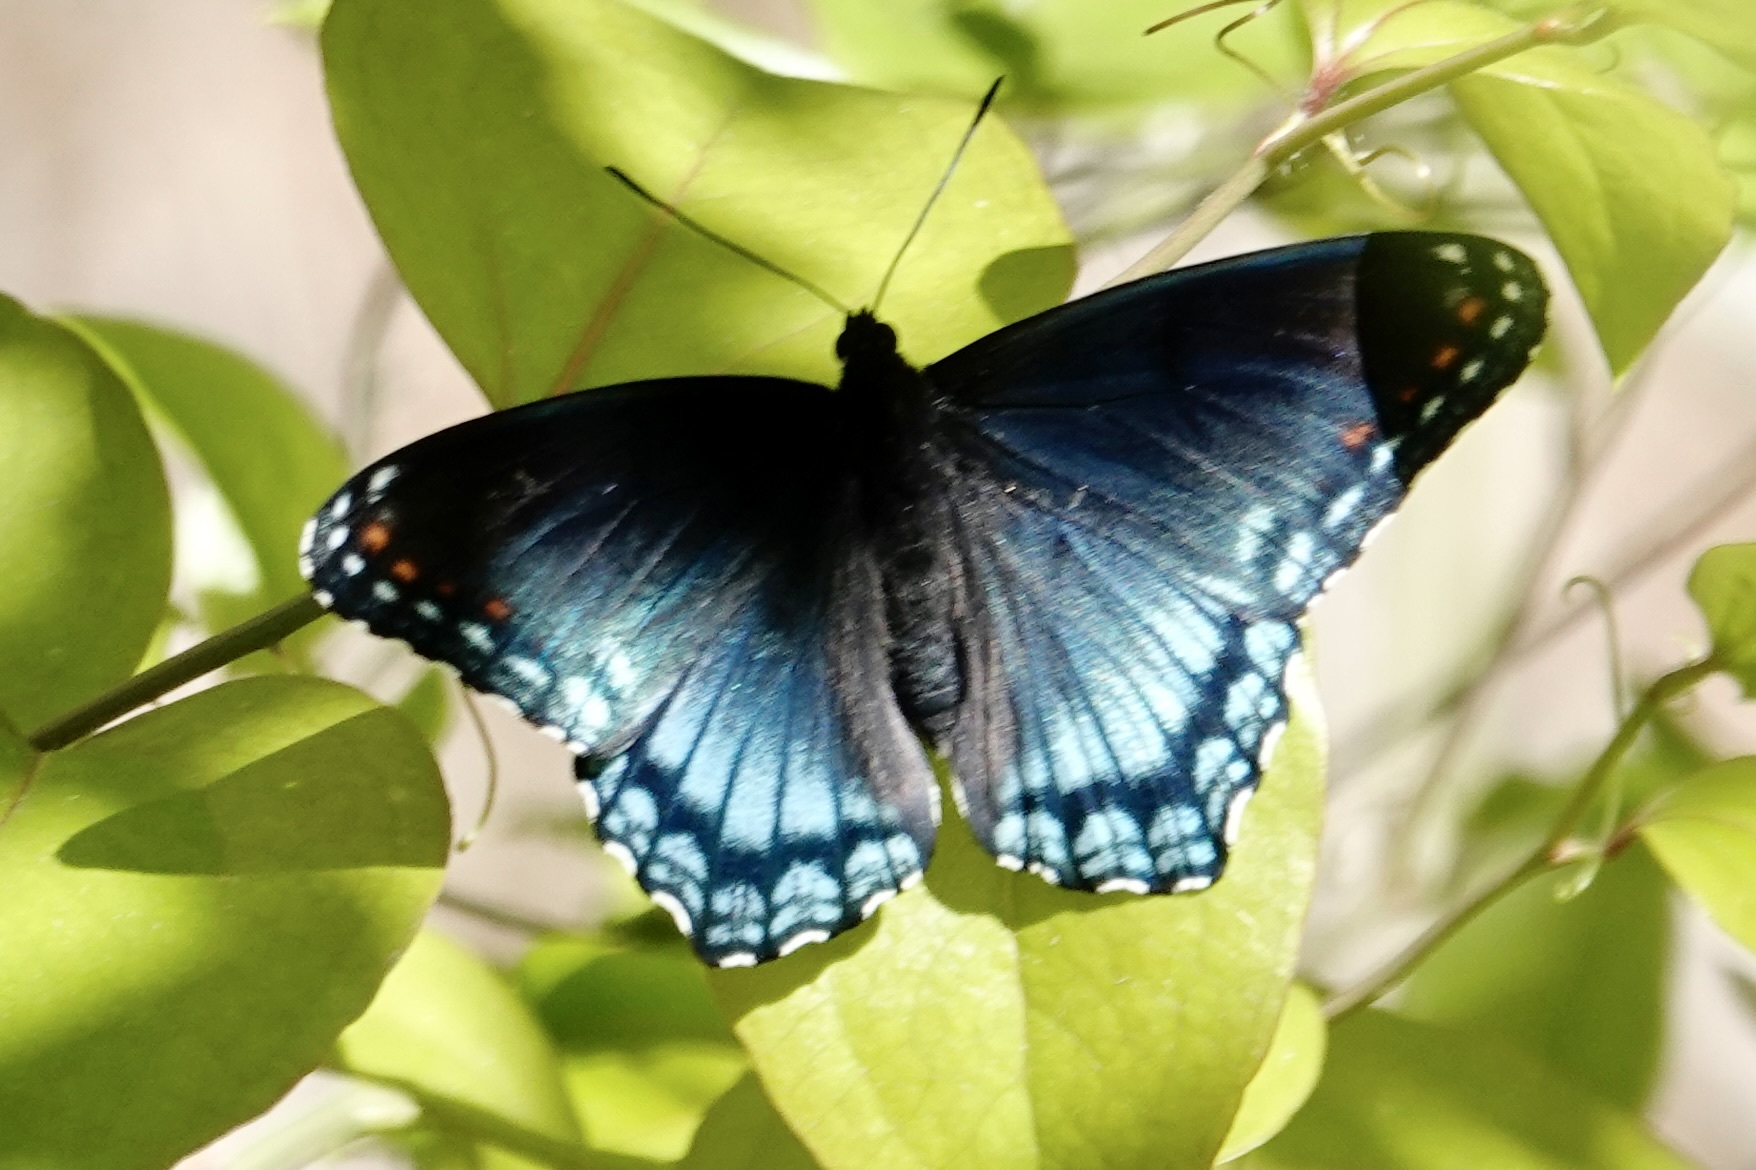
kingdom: Animalia
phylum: Arthropoda
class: Insecta
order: Lepidoptera
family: Nymphalidae
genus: Limenitis
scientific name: Limenitis astyanax
